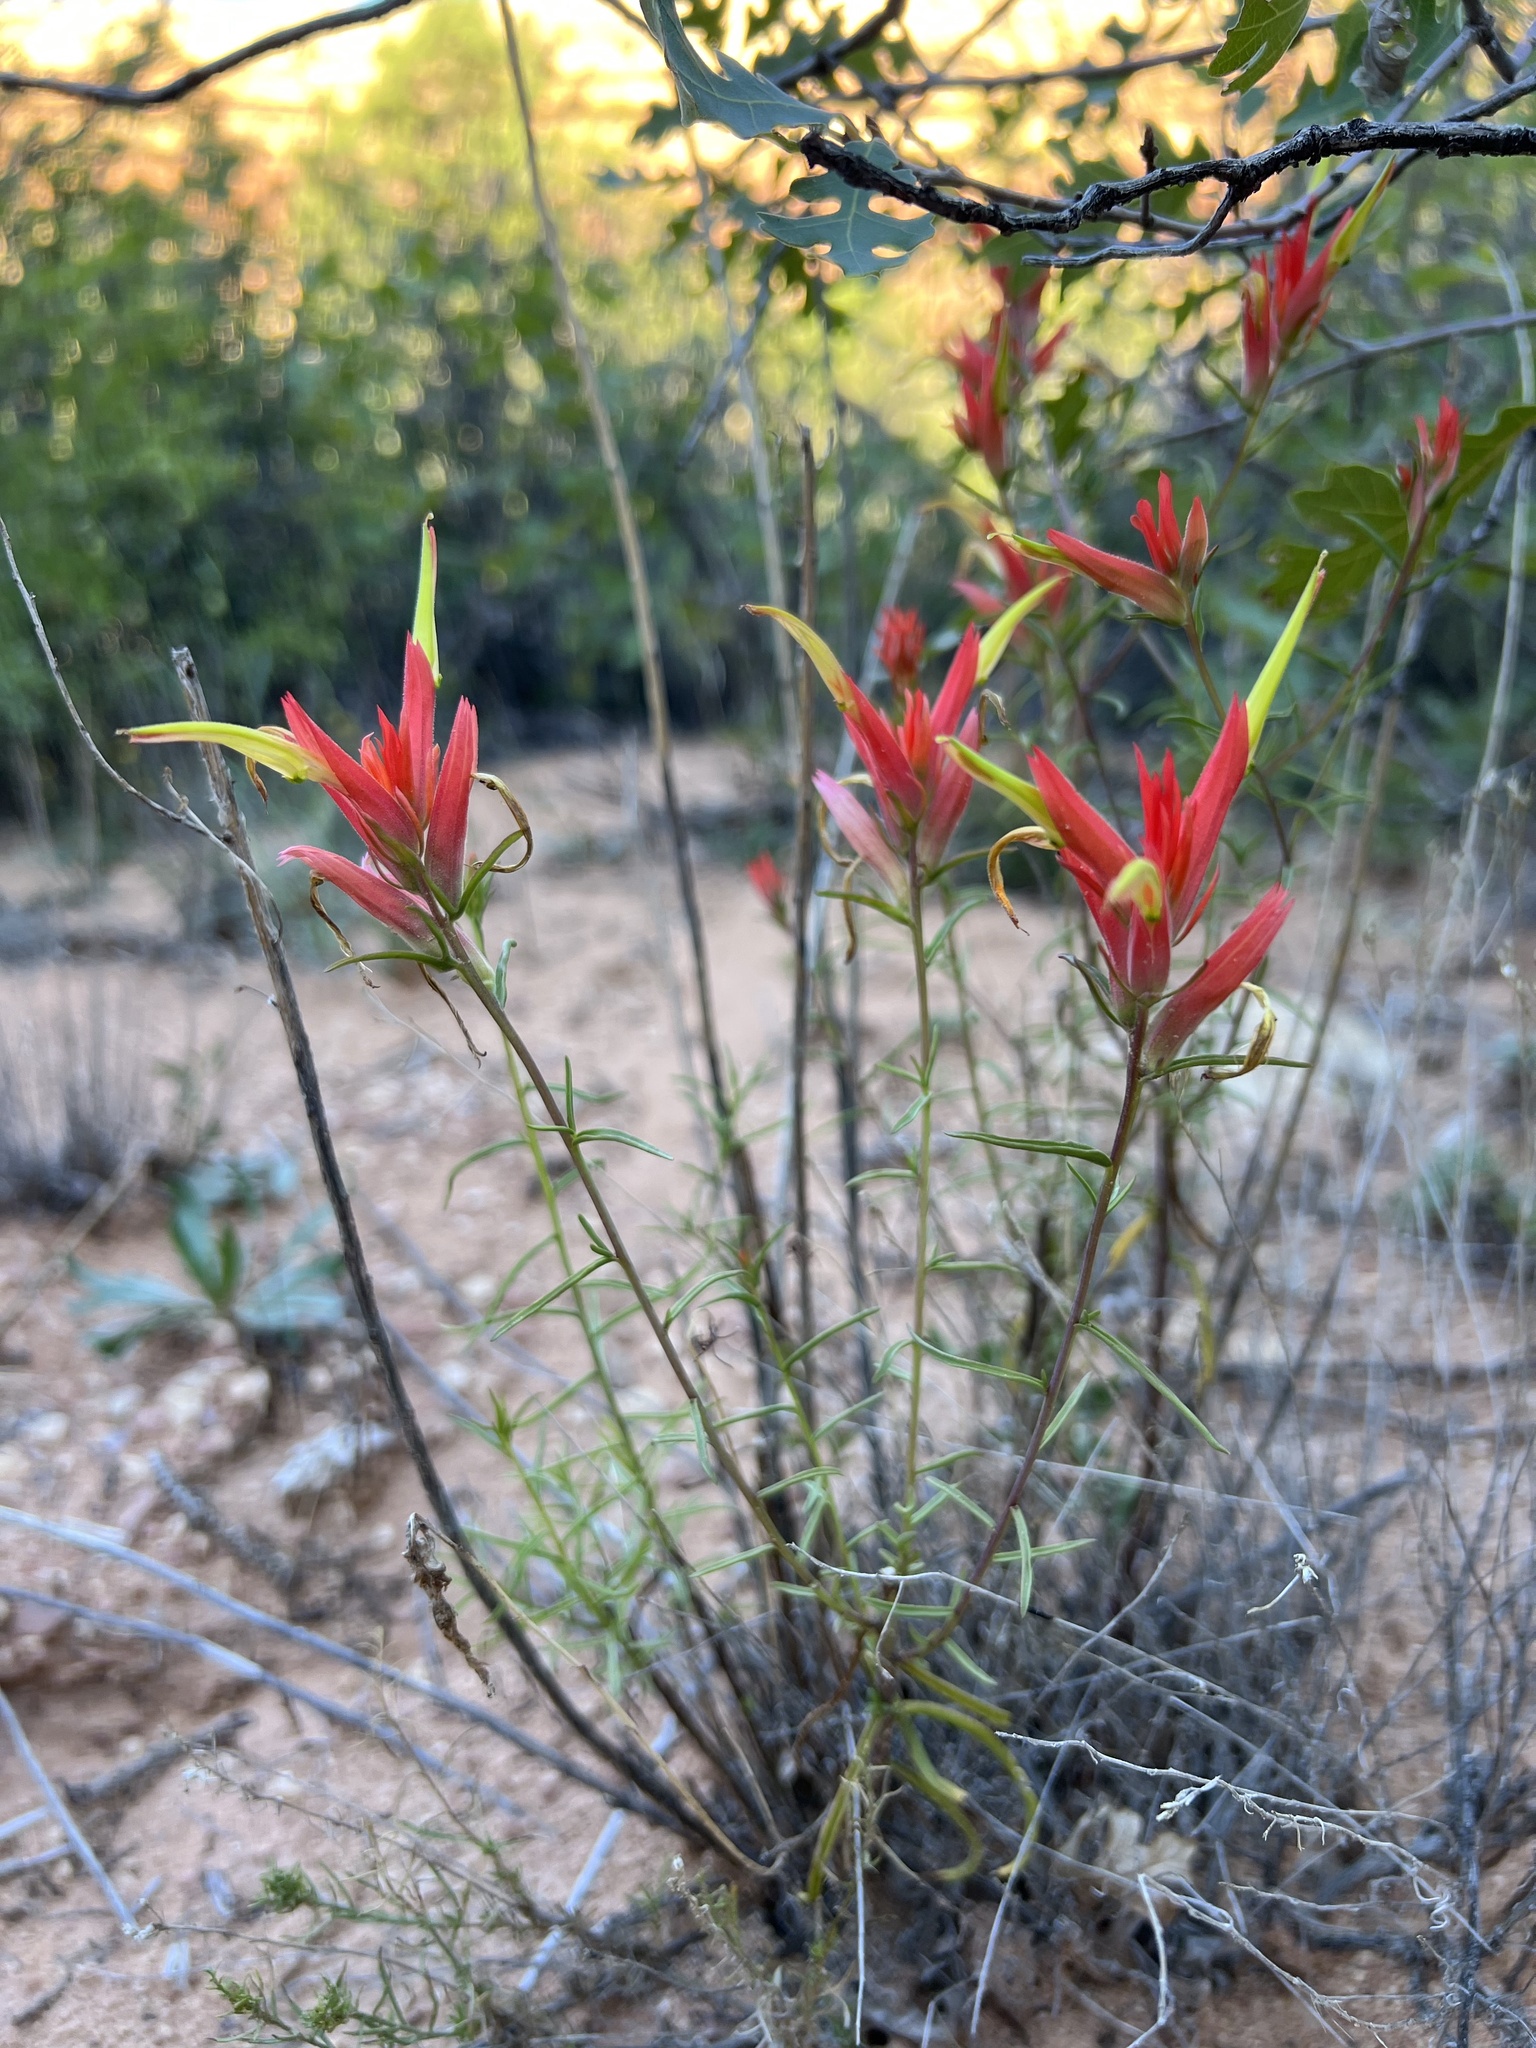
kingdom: Plantae
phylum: Tracheophyta
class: Magnoliopsida
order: Lamiales
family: Orobanchaceae
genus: Castilleja
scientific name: Castilleja linariifolia
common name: Wyoming paintbrush
